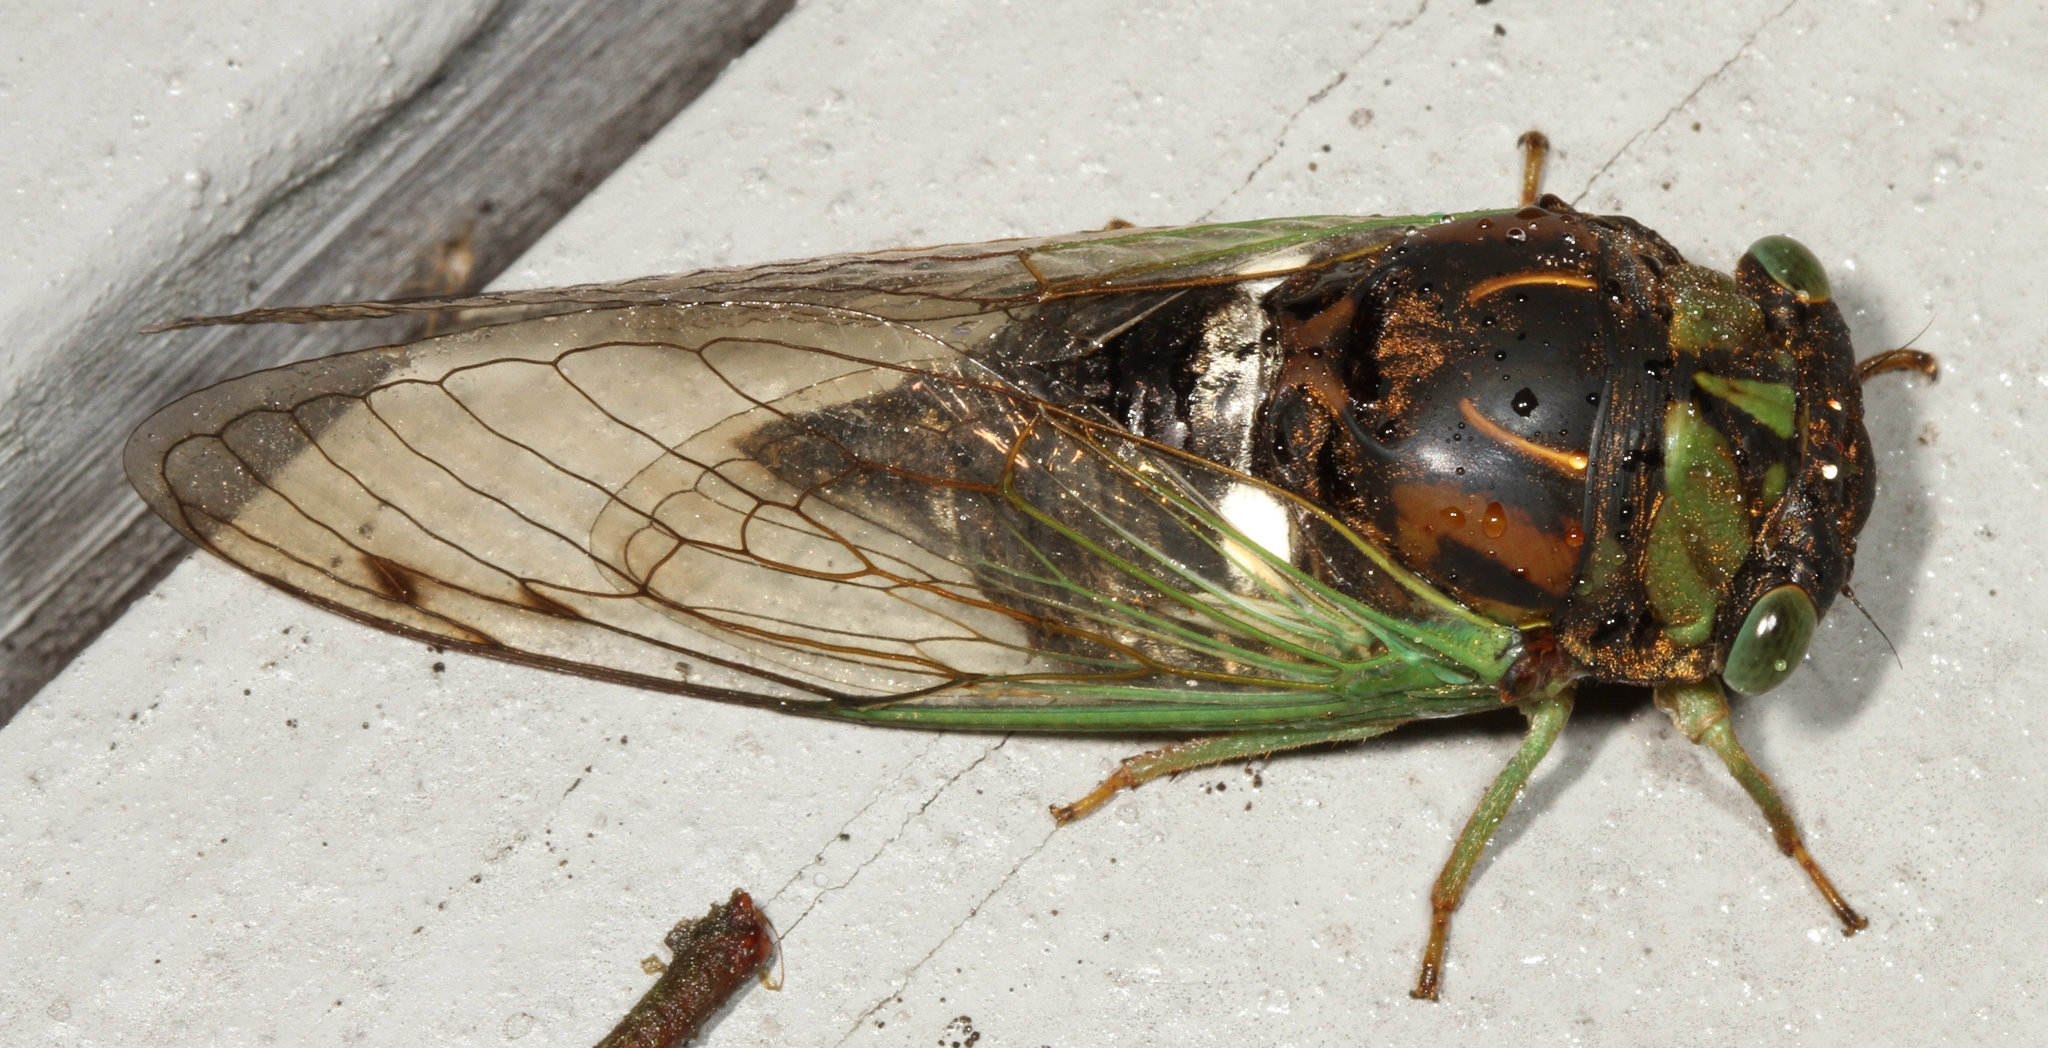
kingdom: Animalia
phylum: Arthropoda
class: Insecta
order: Hemiptera
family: Cicadidae
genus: Neotibicen
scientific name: Neotibicen tibicen
